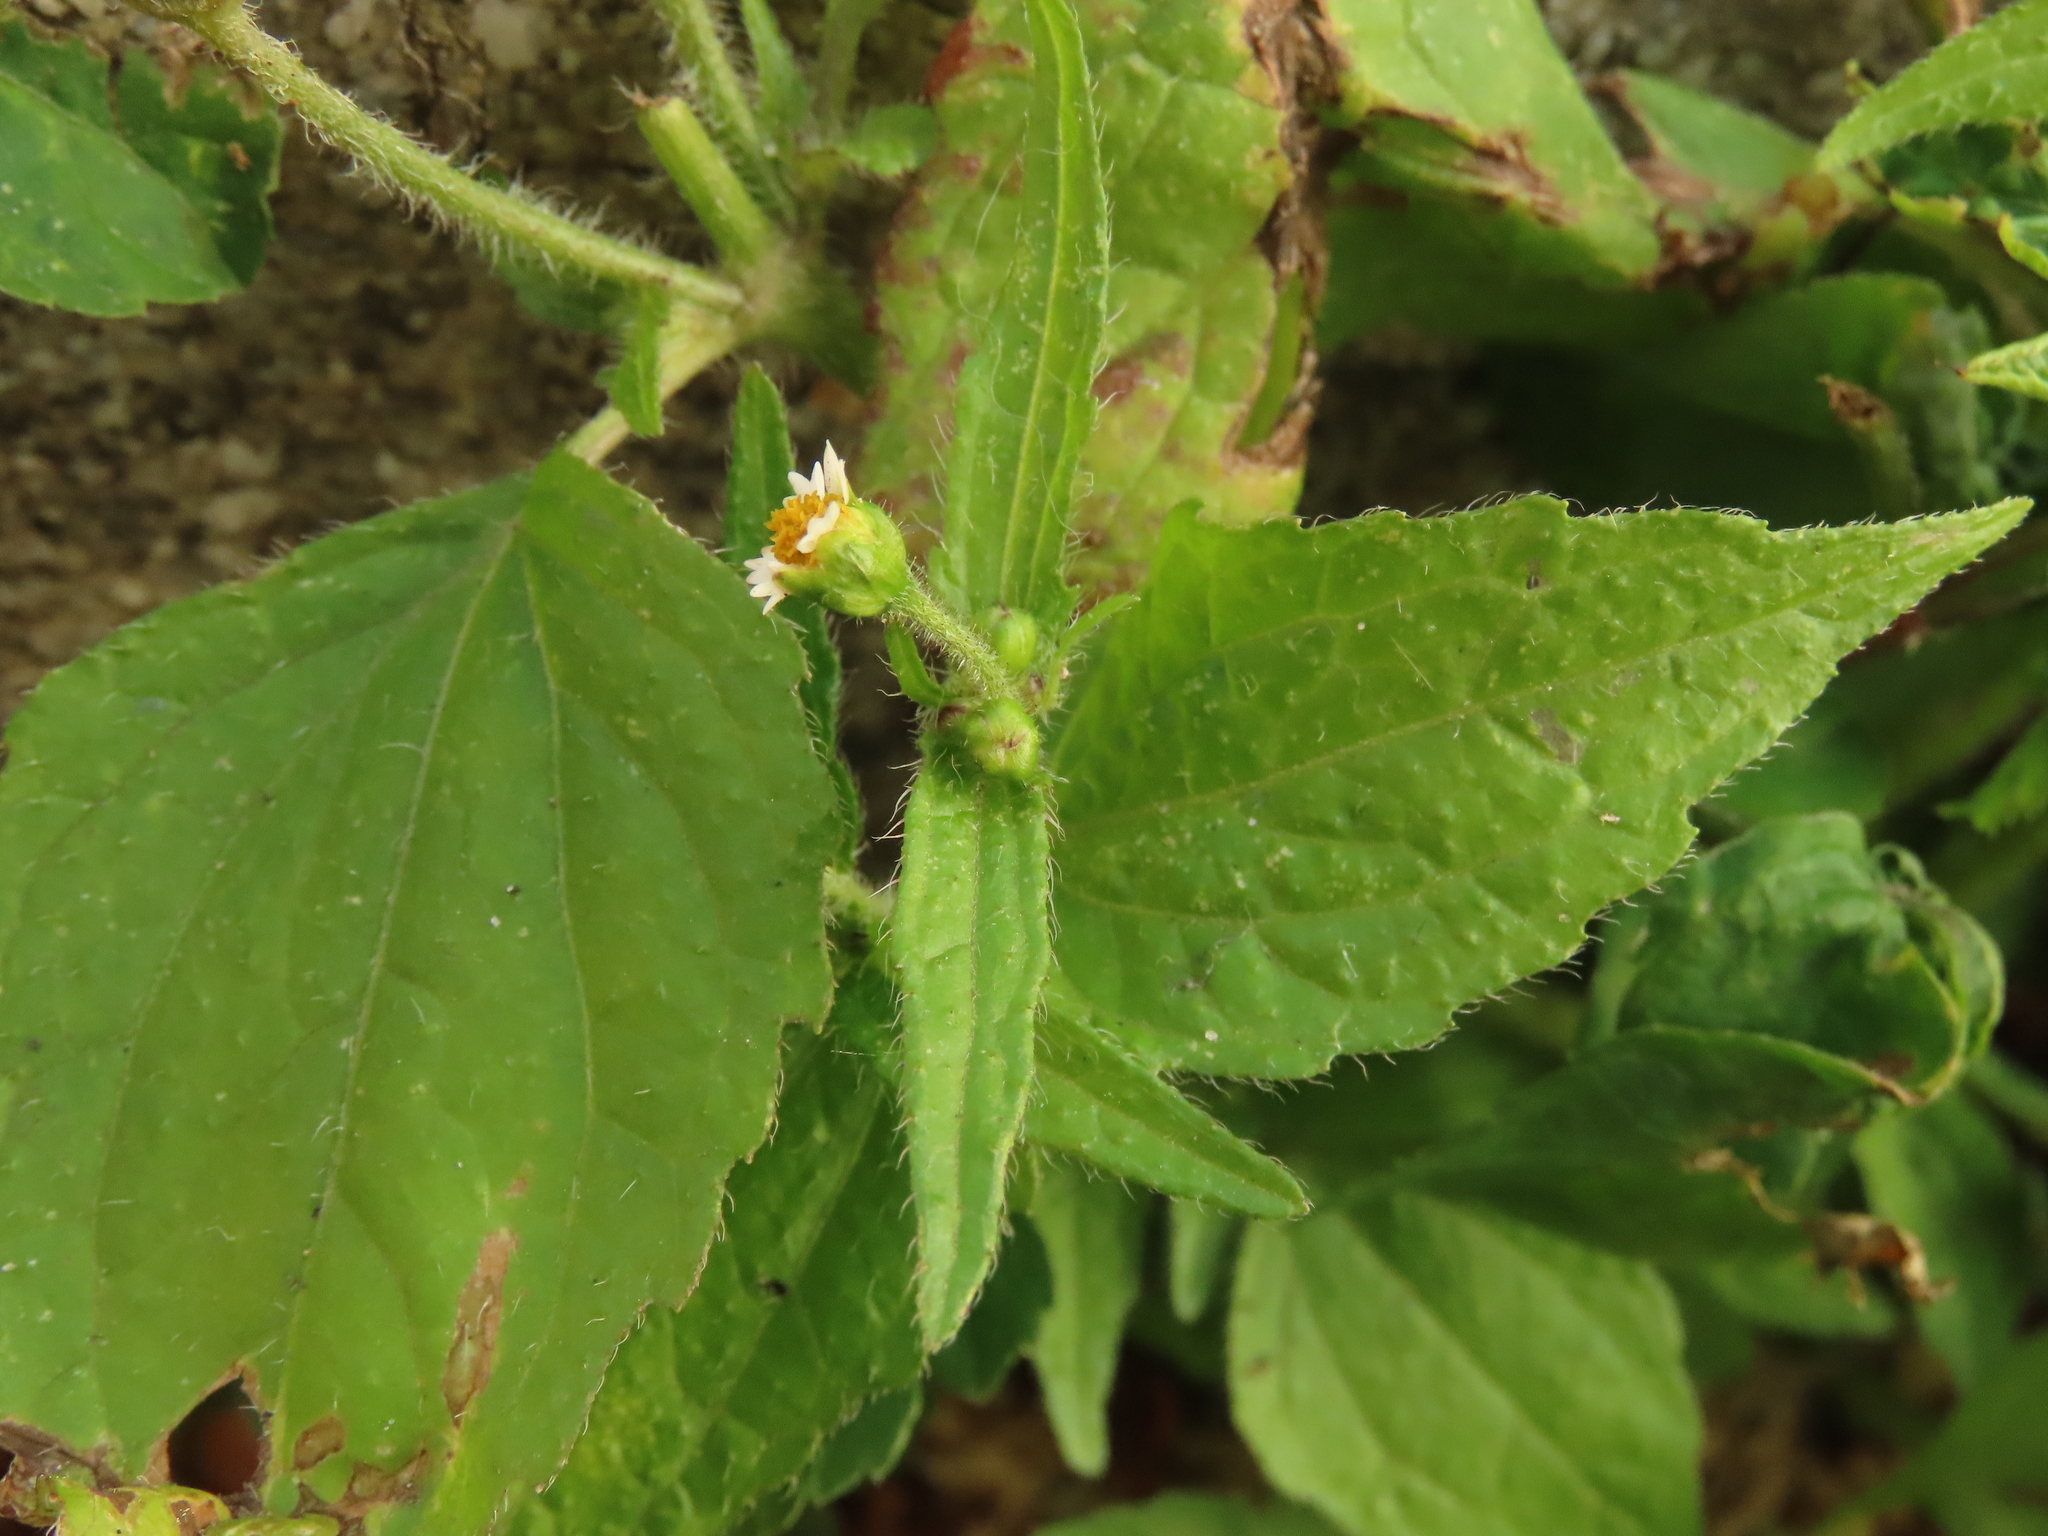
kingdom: Plantae
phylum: Tracheophyta
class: Magnoliopsida
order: Asterales
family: Asteraceae
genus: Galinsoga
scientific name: Galinsoga quadriradiata
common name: Shaggy soldier
